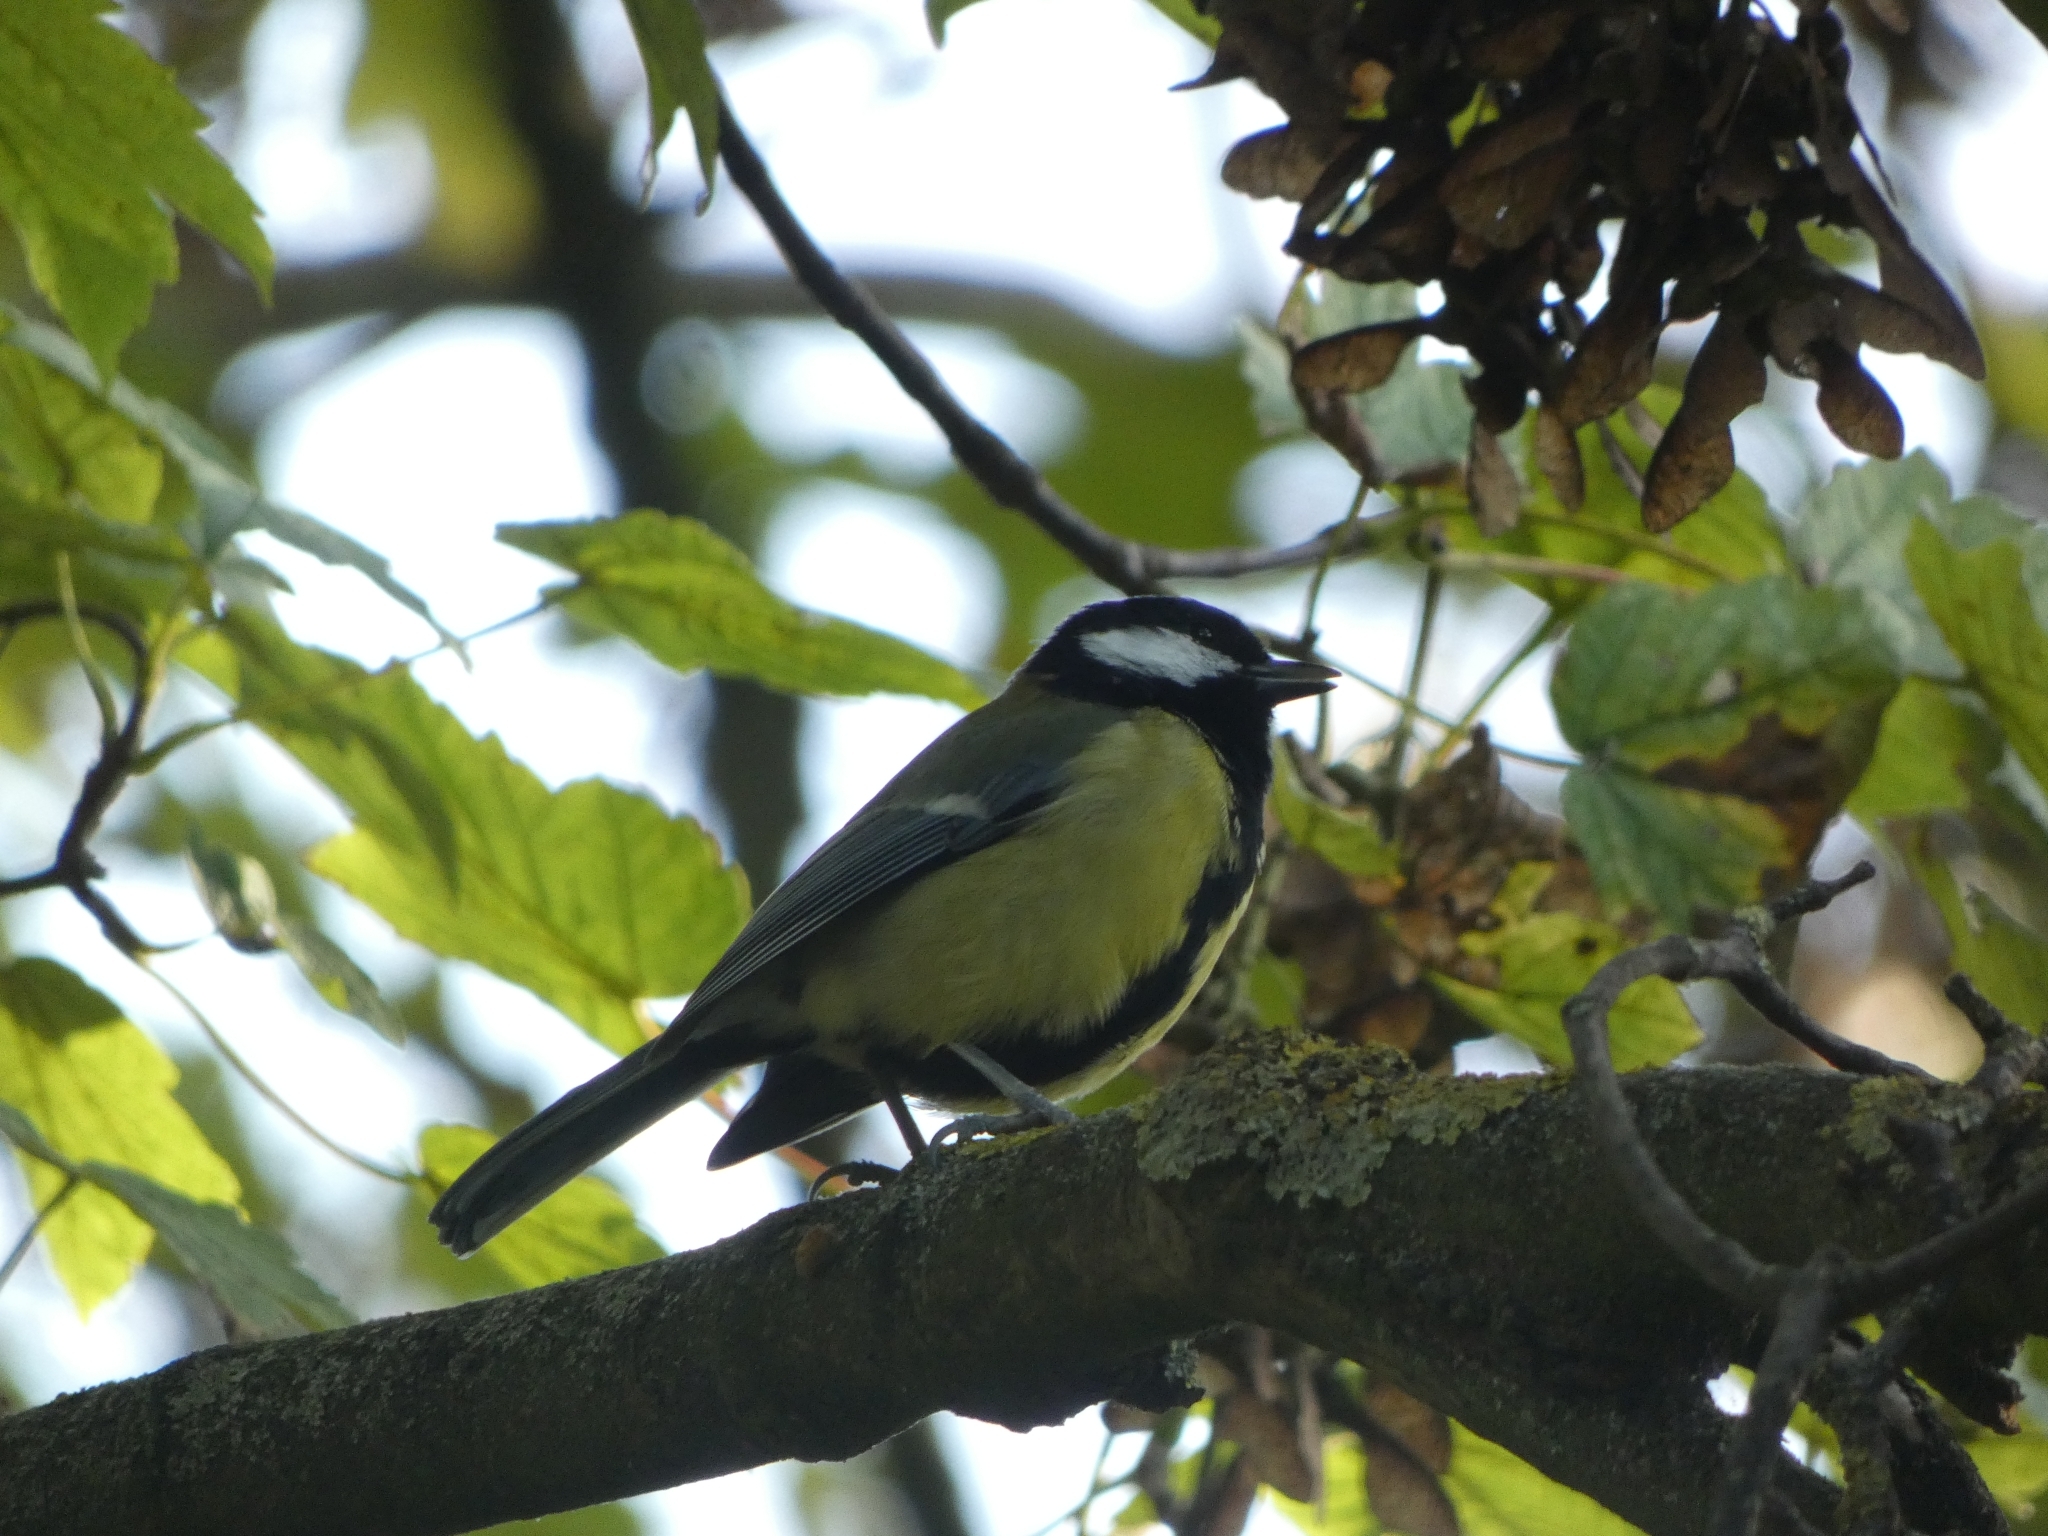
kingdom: Animalia
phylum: Chordata
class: Aves
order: Passeriformes
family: Paridae
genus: Parus
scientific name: Parus major
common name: Great tit
